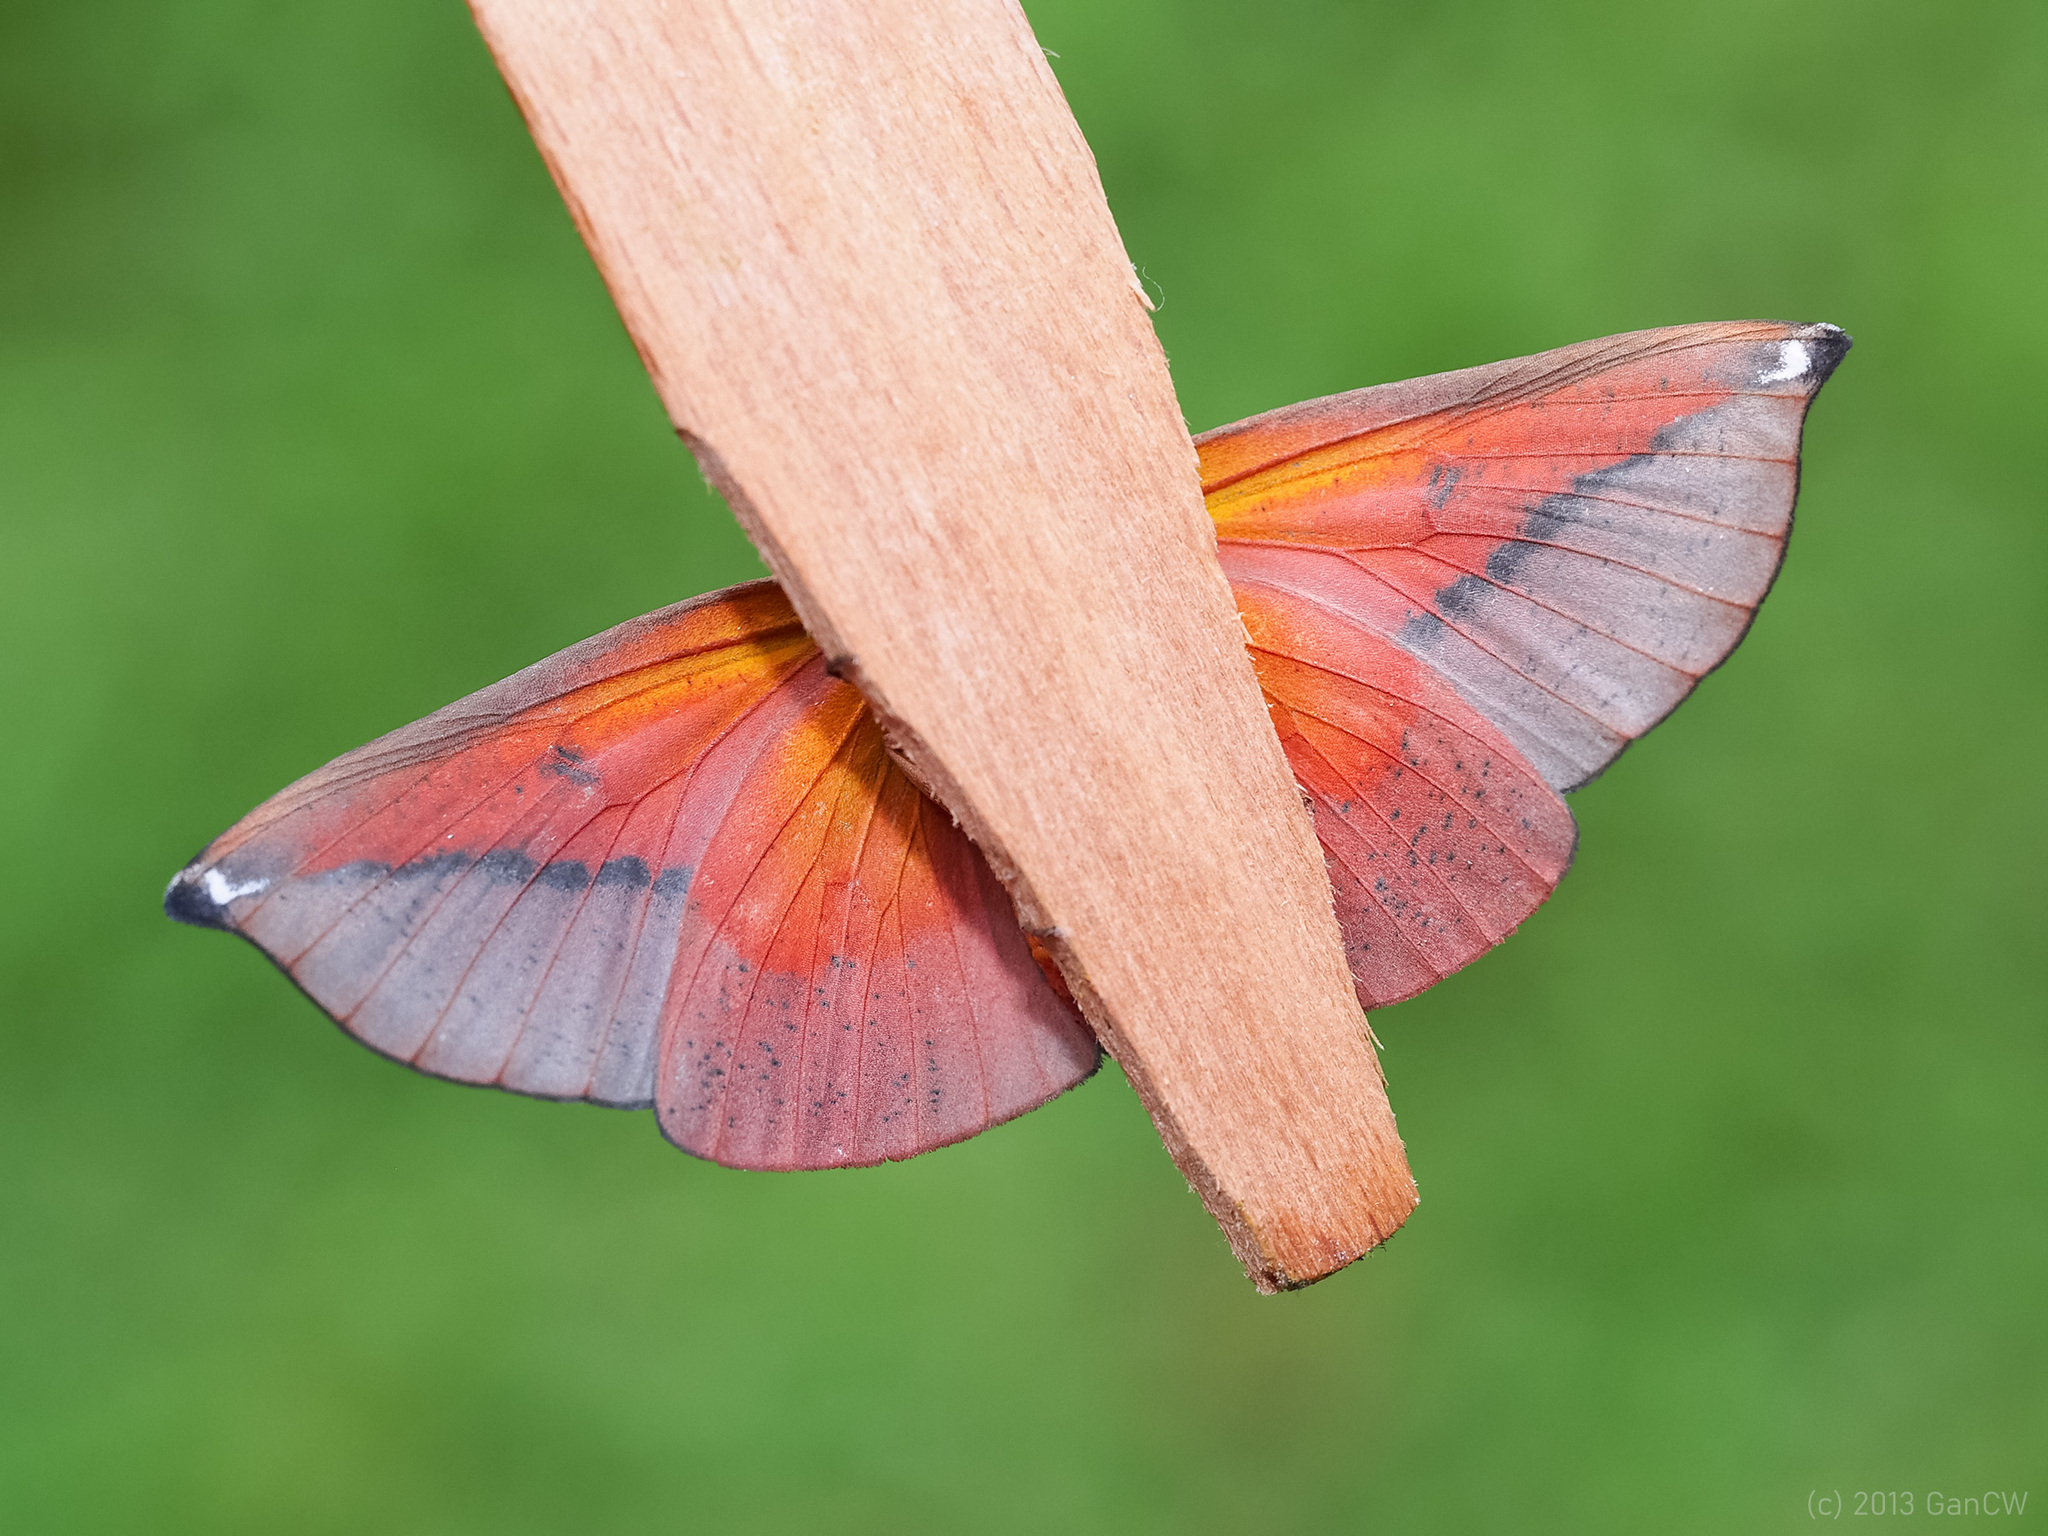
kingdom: Animalia
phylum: Arthropoda
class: Insecta
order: Lepidoptera
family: Geometridae
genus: Omiza
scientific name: Omiza lycoraria
